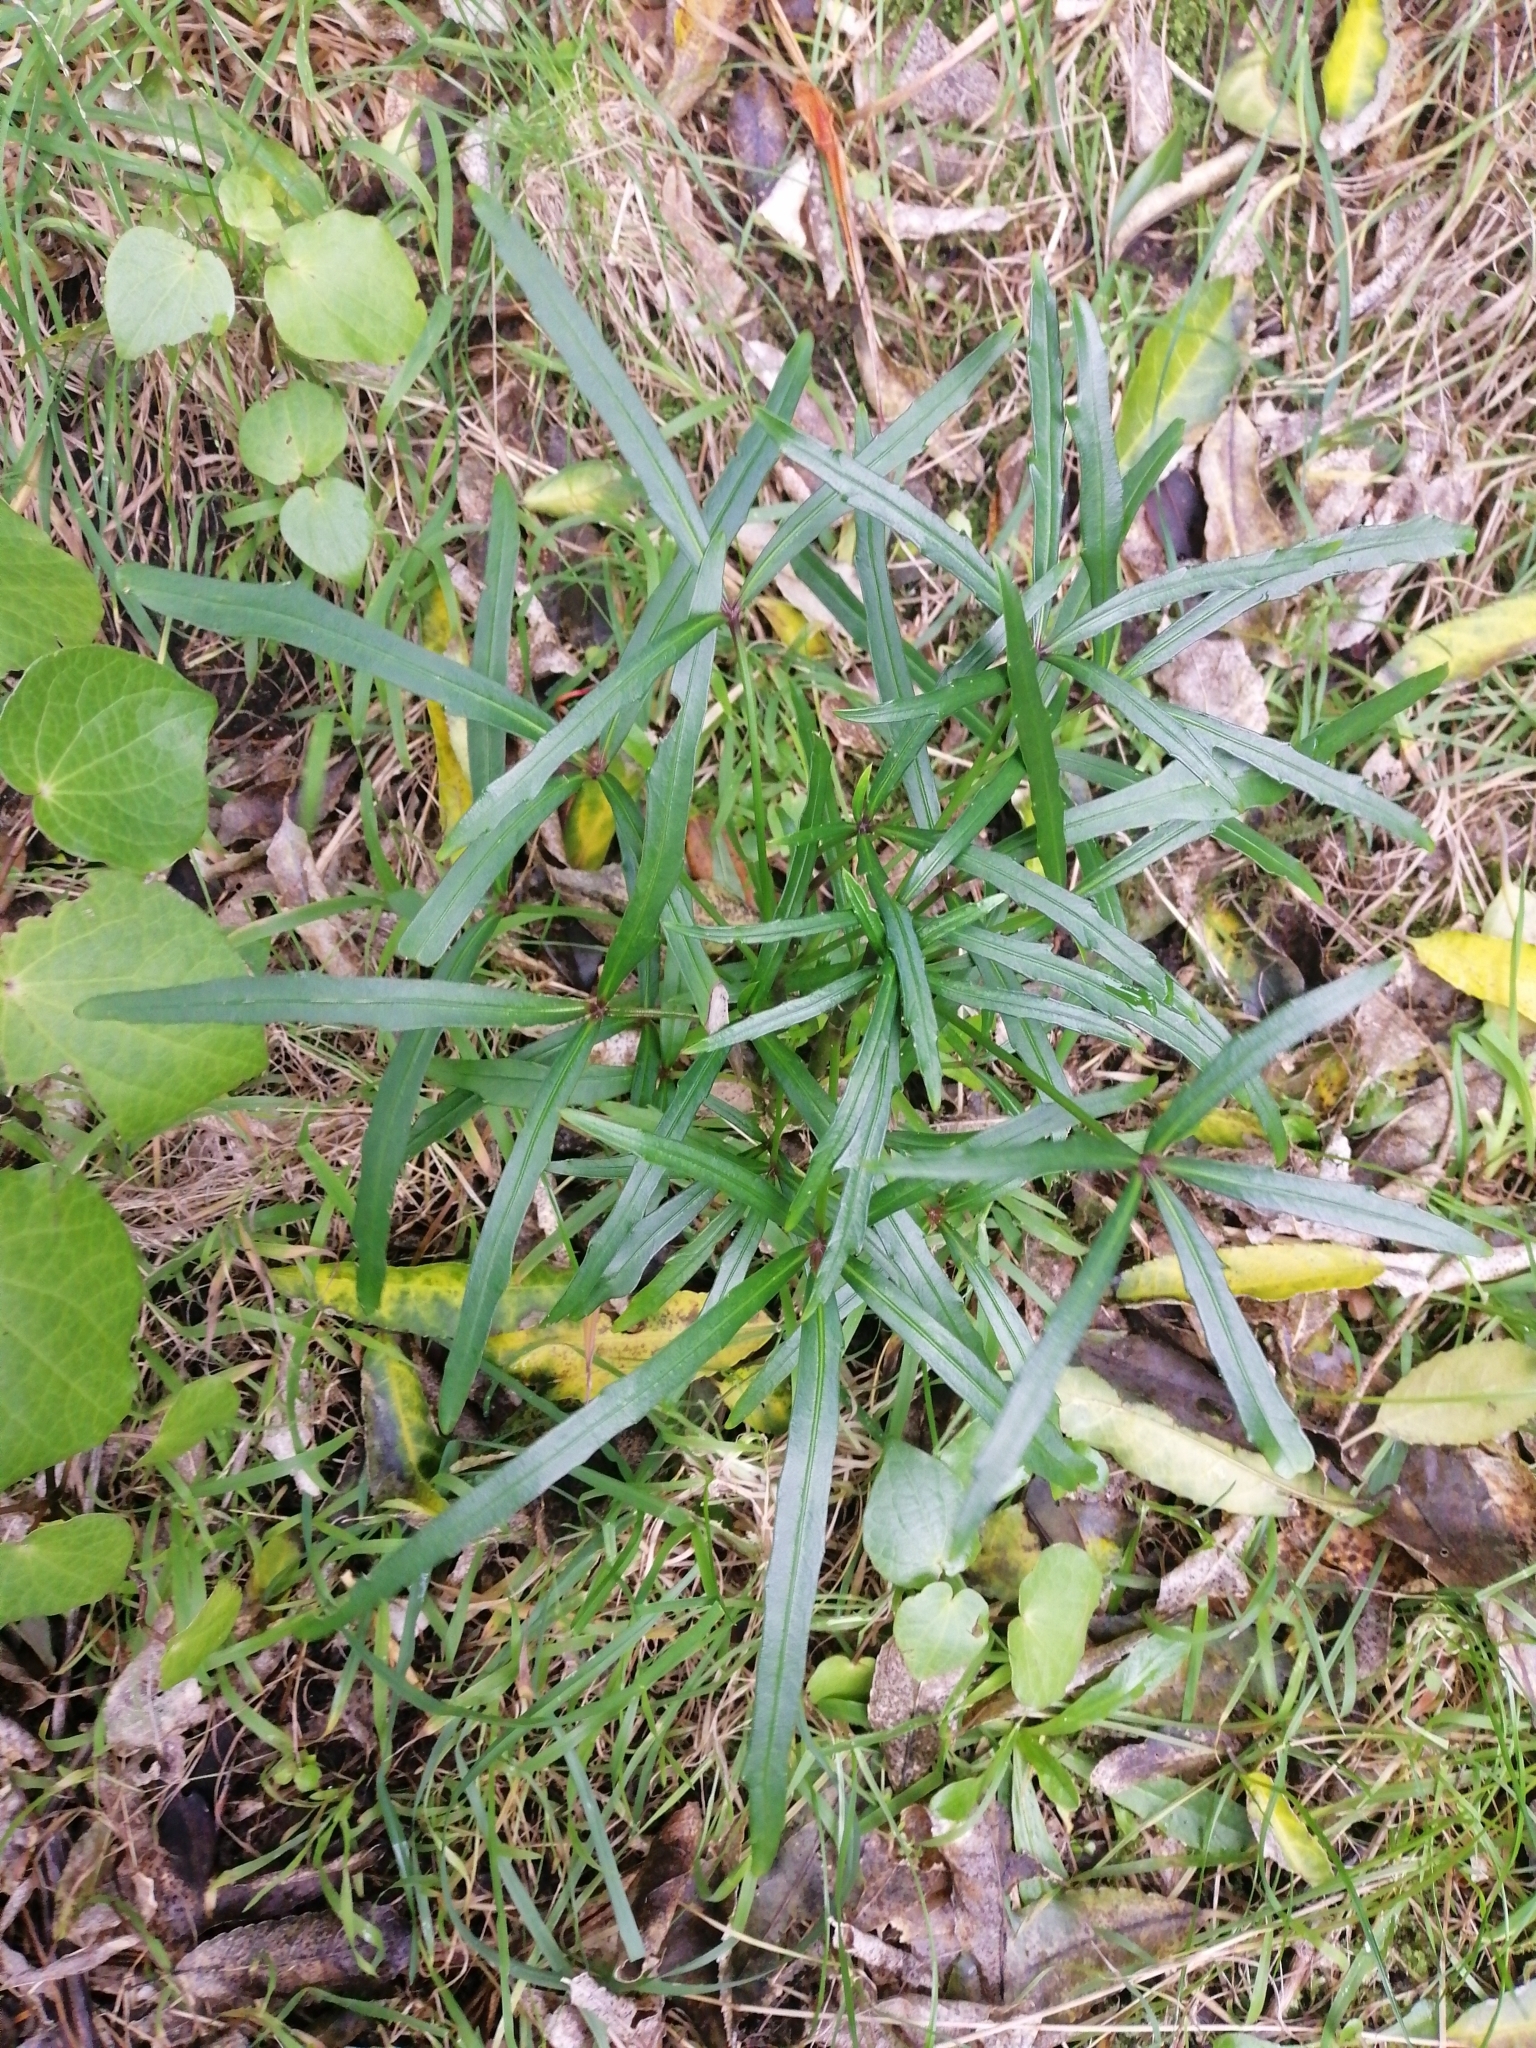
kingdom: Plantae
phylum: Tracheophyta
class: Magnoliopsida
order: Apiales
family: Araliaceae
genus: Pseudopanax
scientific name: Pseudopanax
